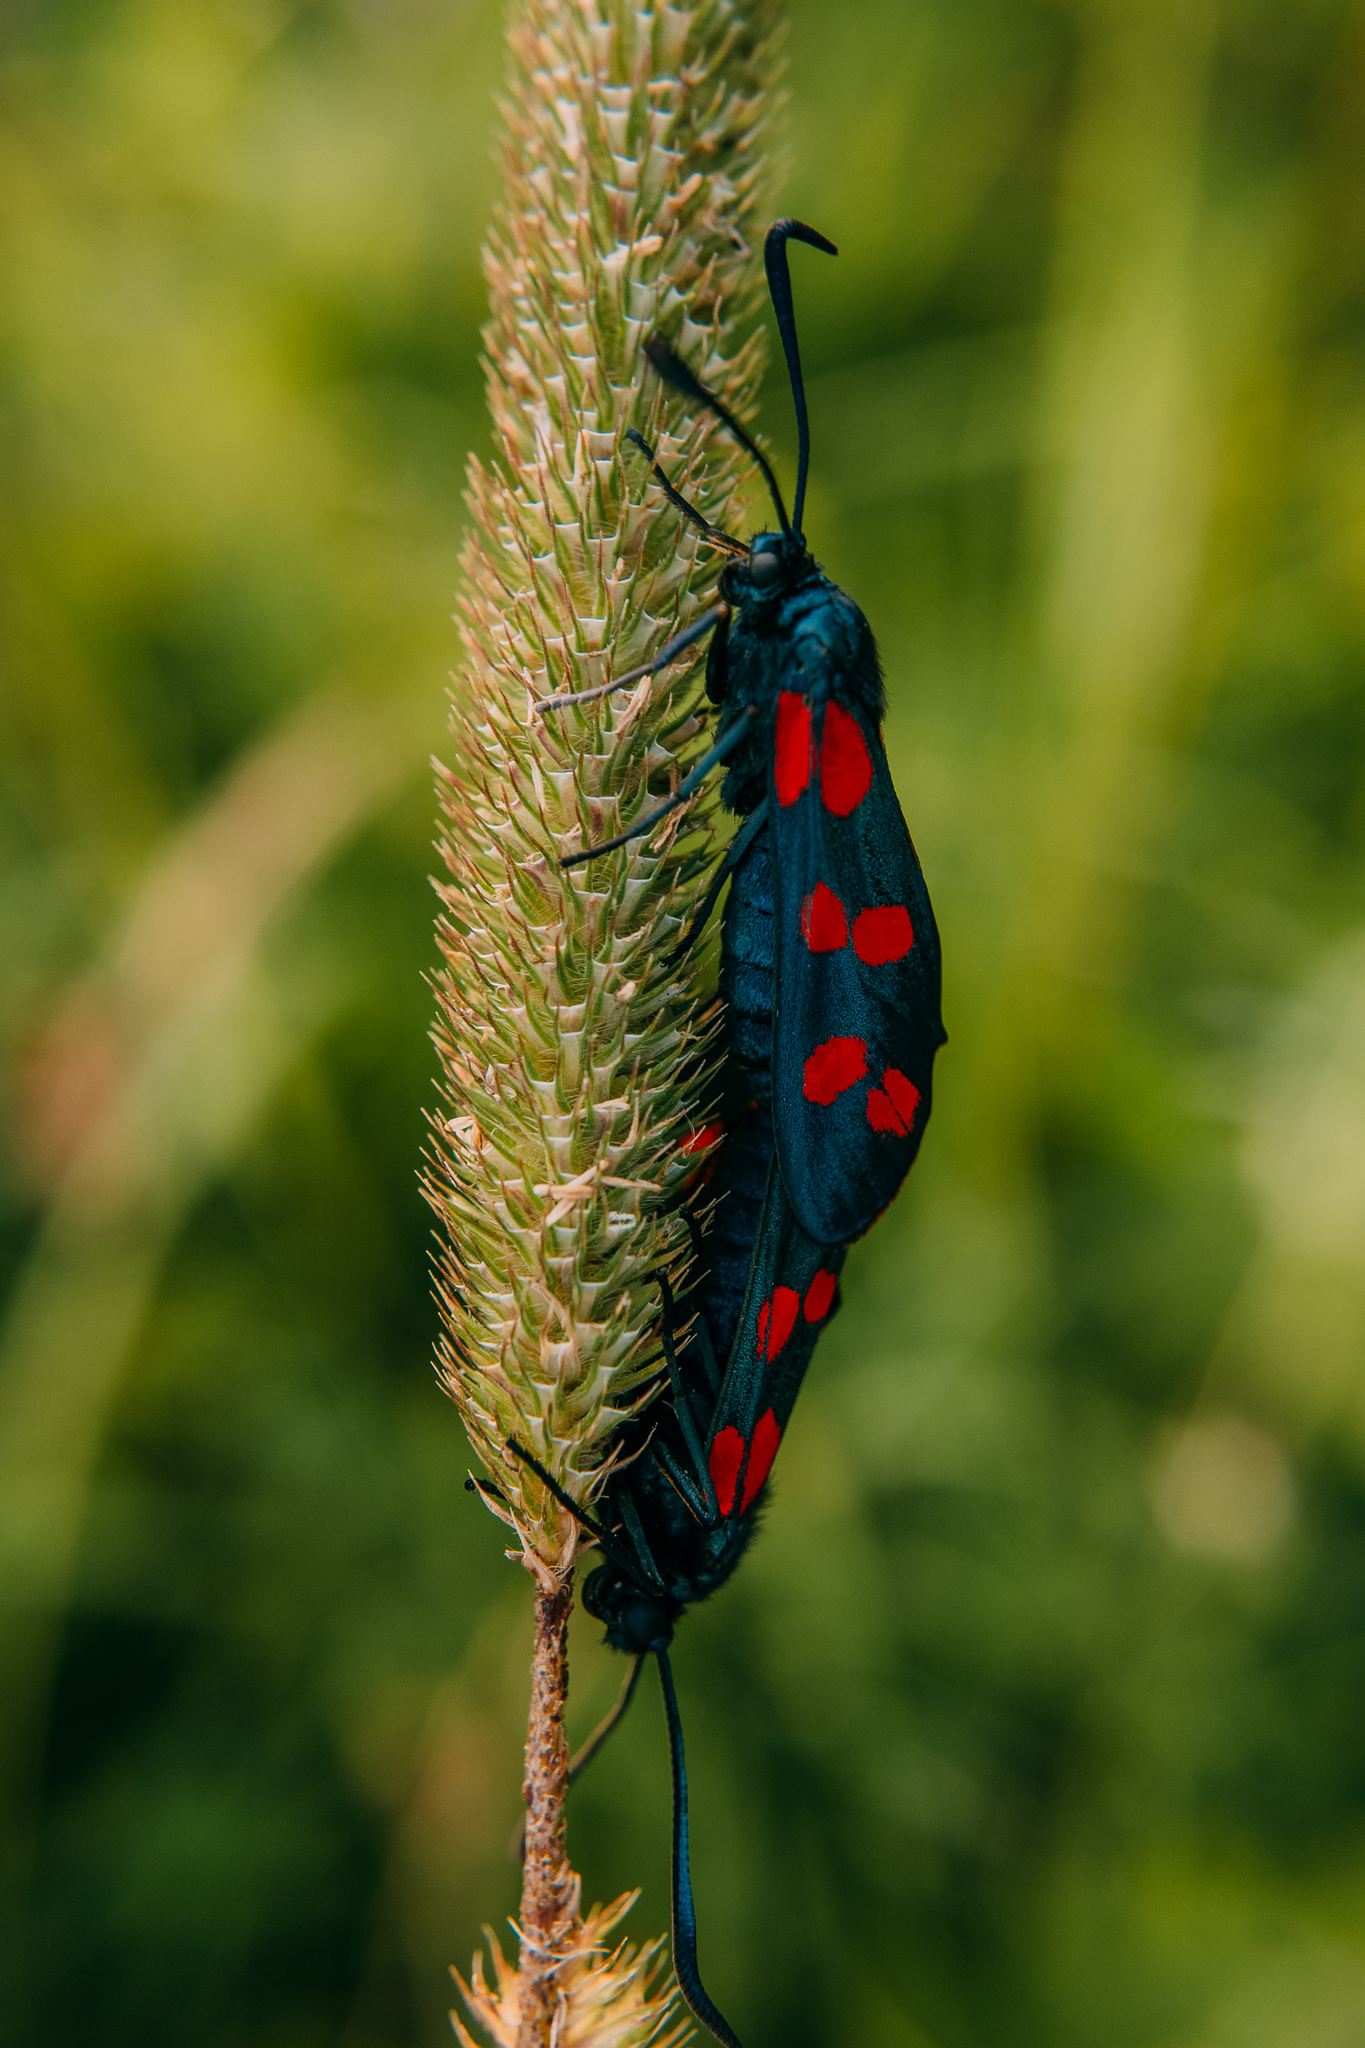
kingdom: Animalia
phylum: Arthropoda
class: Insecta
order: Lepidoptera
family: Zygaenidae
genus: Zygaena
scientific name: Zygaena filipendulae
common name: Six-spot burnet
